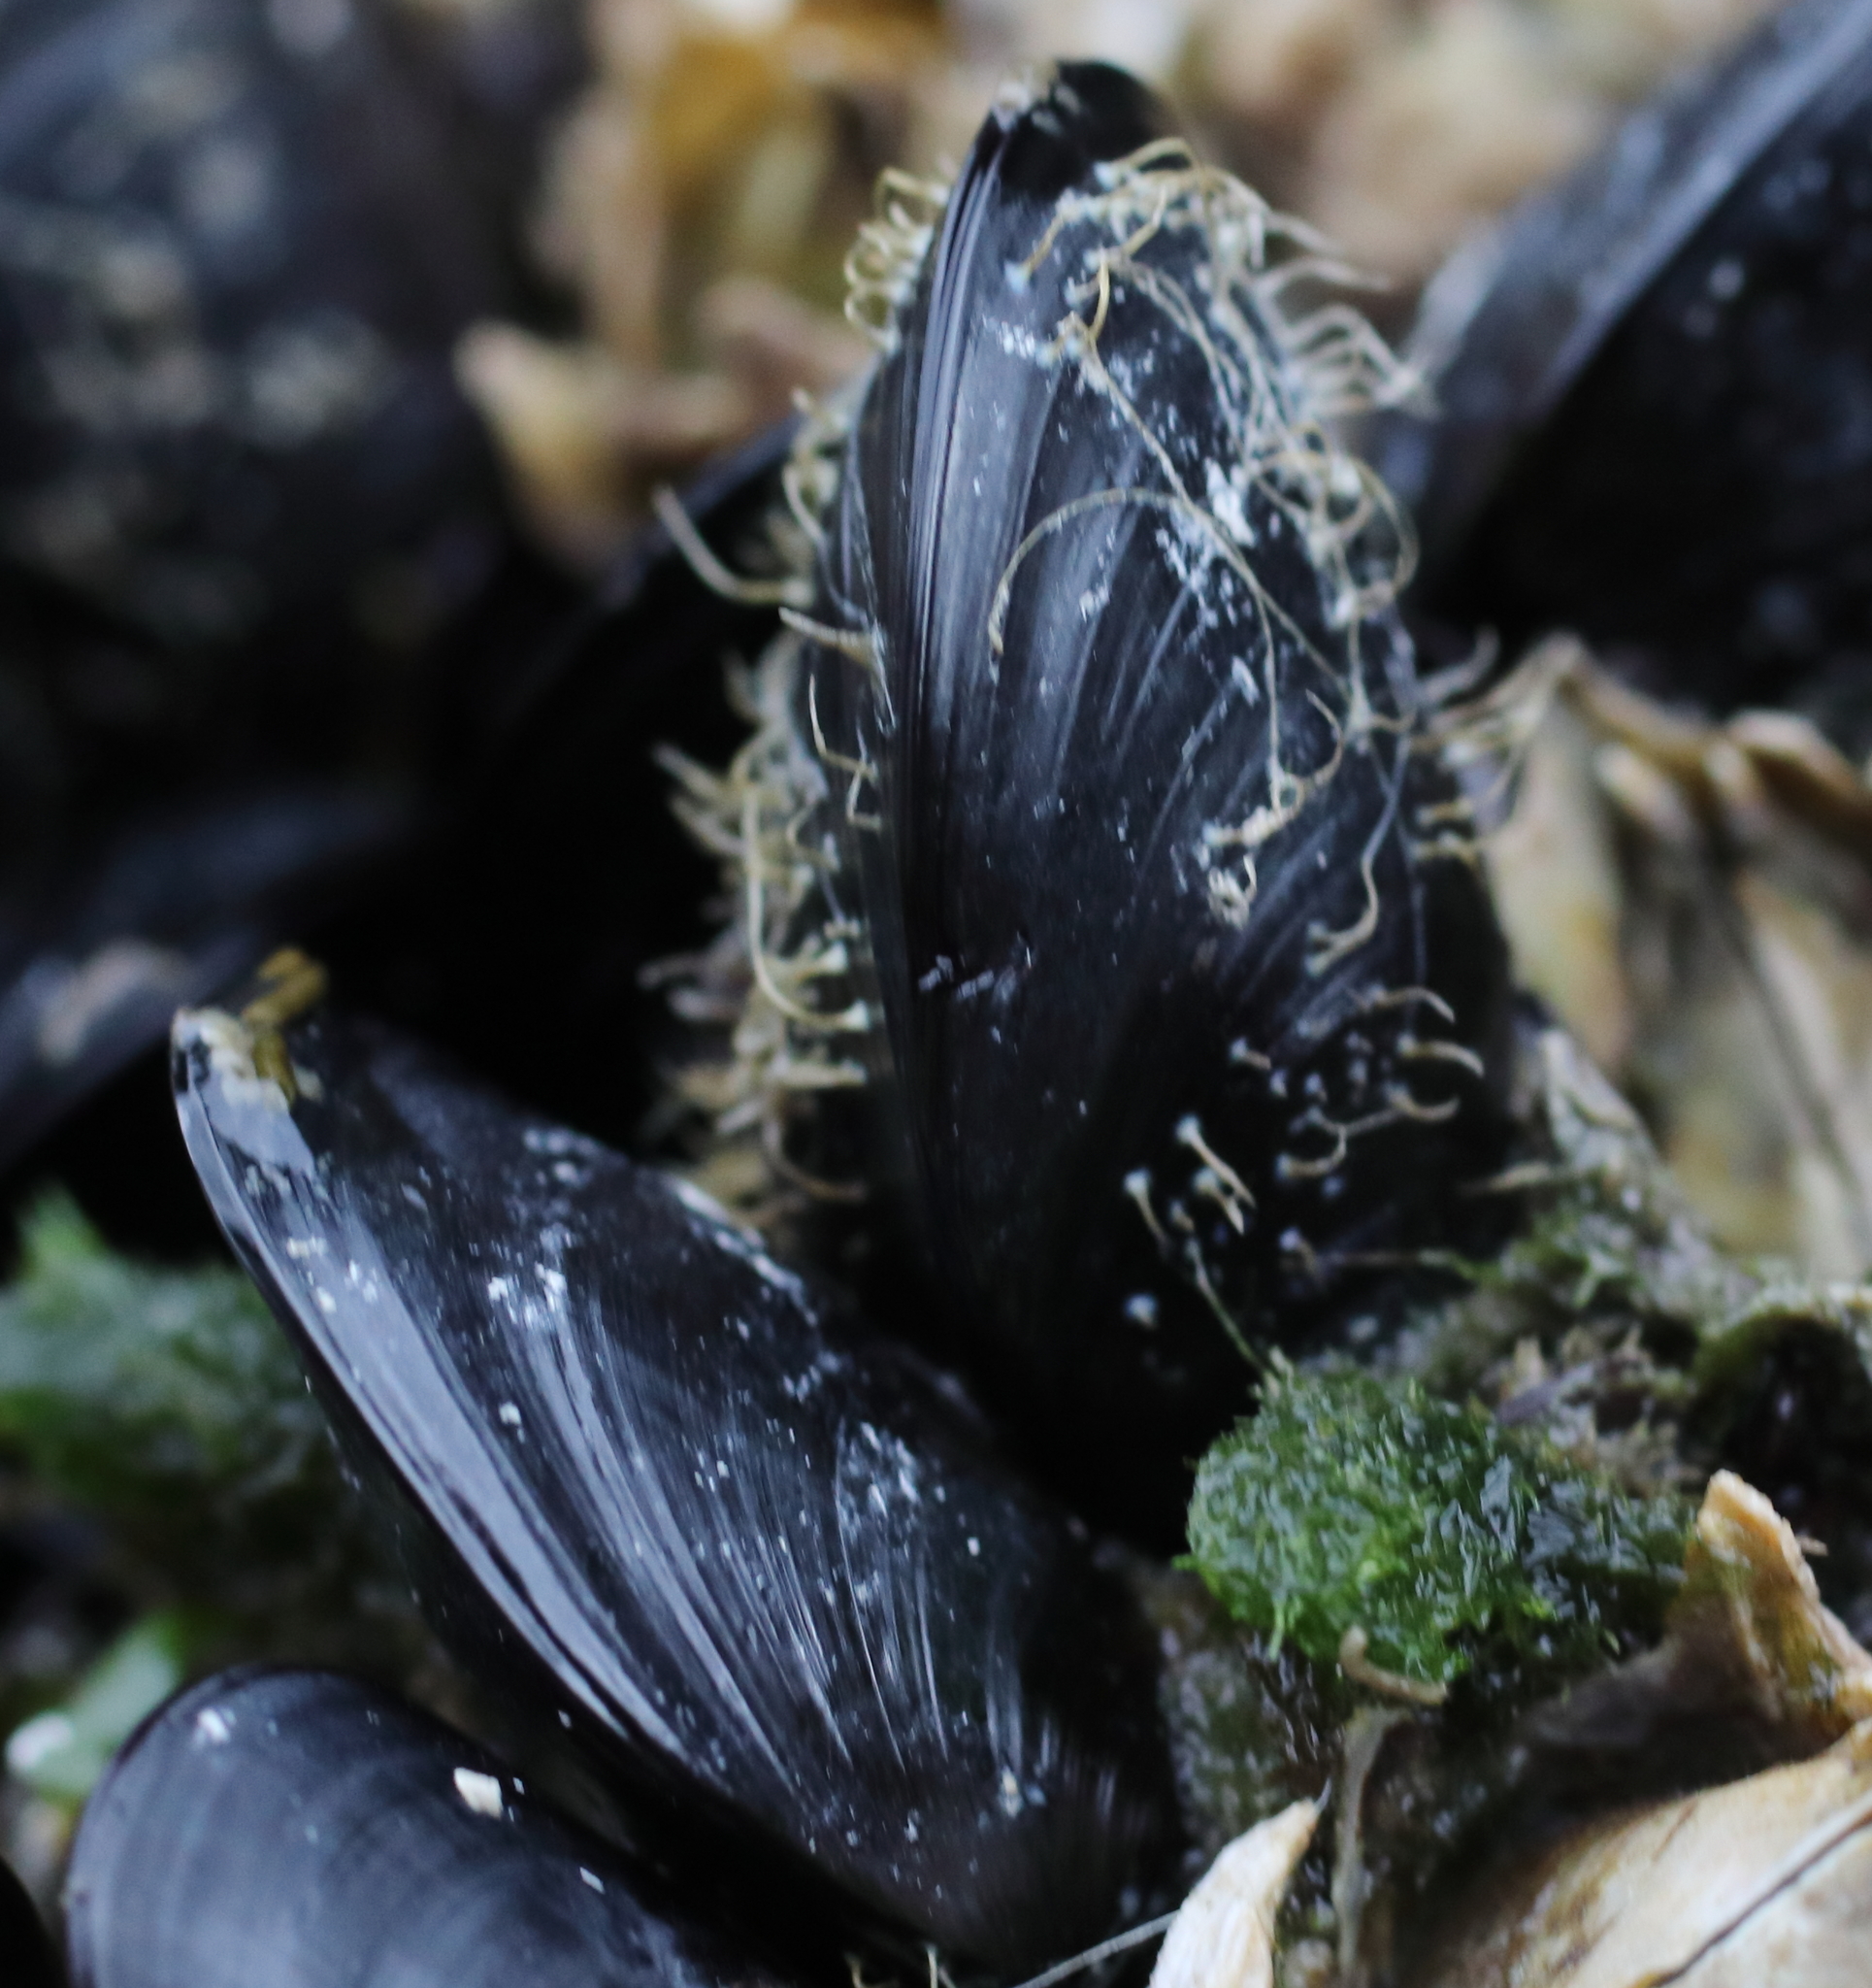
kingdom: Animalia
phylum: Mollusca
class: Bivalvia
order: Mytilida
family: Mytilidae
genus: Mytilus
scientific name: Mytilus trossulus
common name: Northern blue mussel
